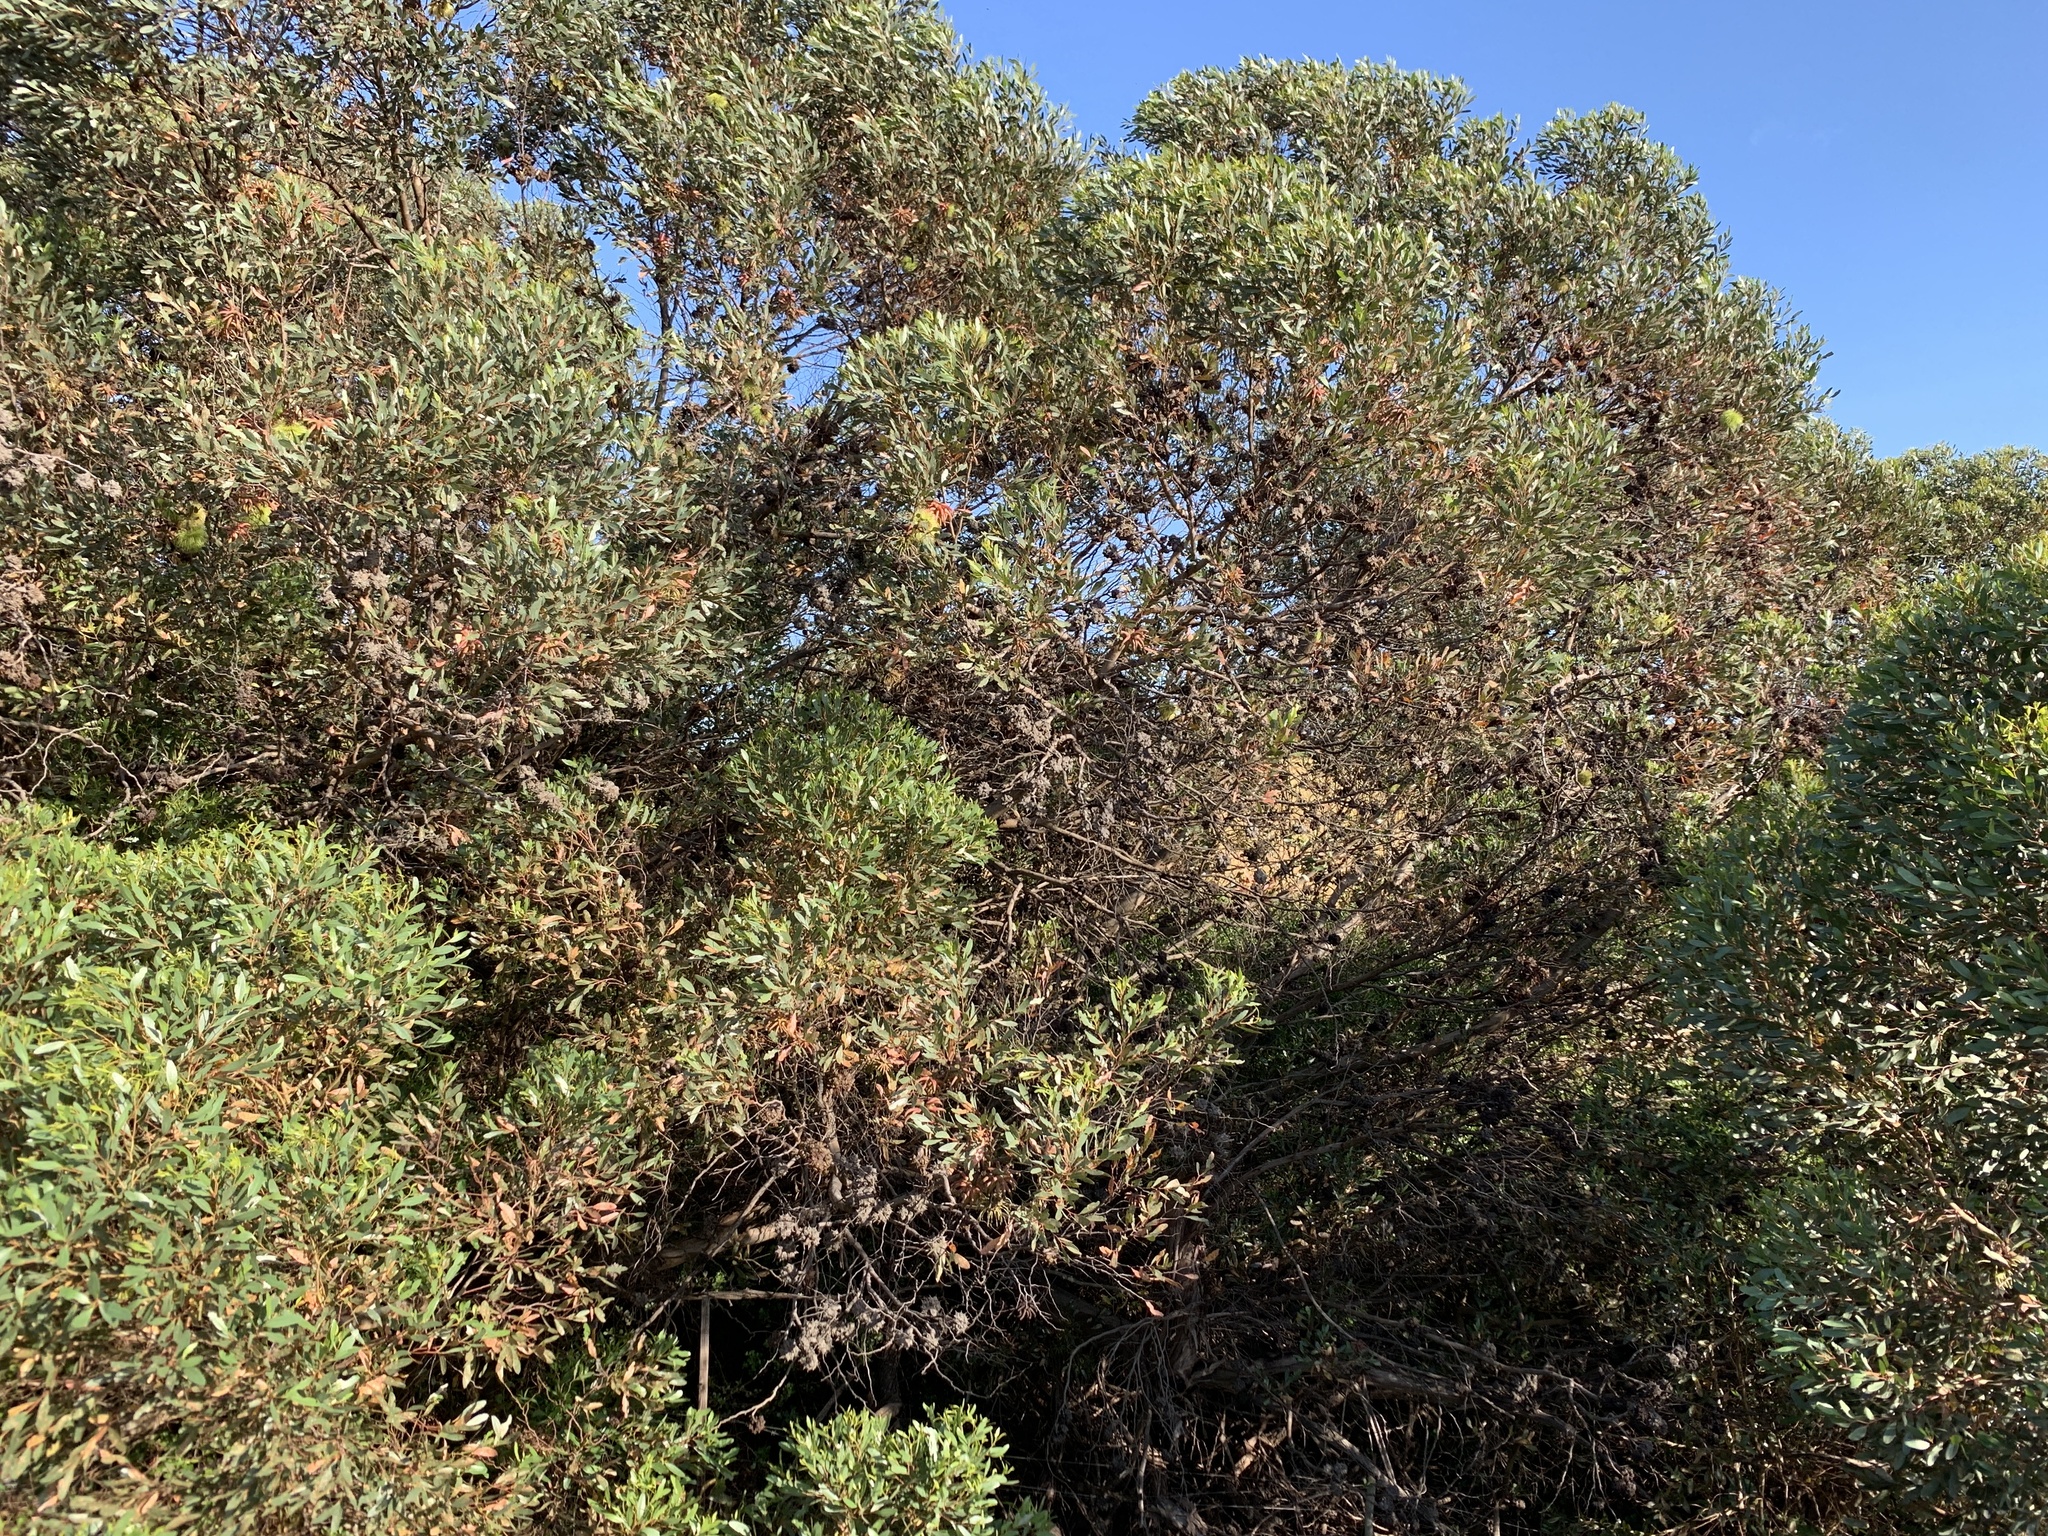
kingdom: Plantae
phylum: Tracheophyta
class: Magnoliopsida
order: Myrtales
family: Myrtaceae
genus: Eucalyptus
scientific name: Eucalyptus conferruminata
